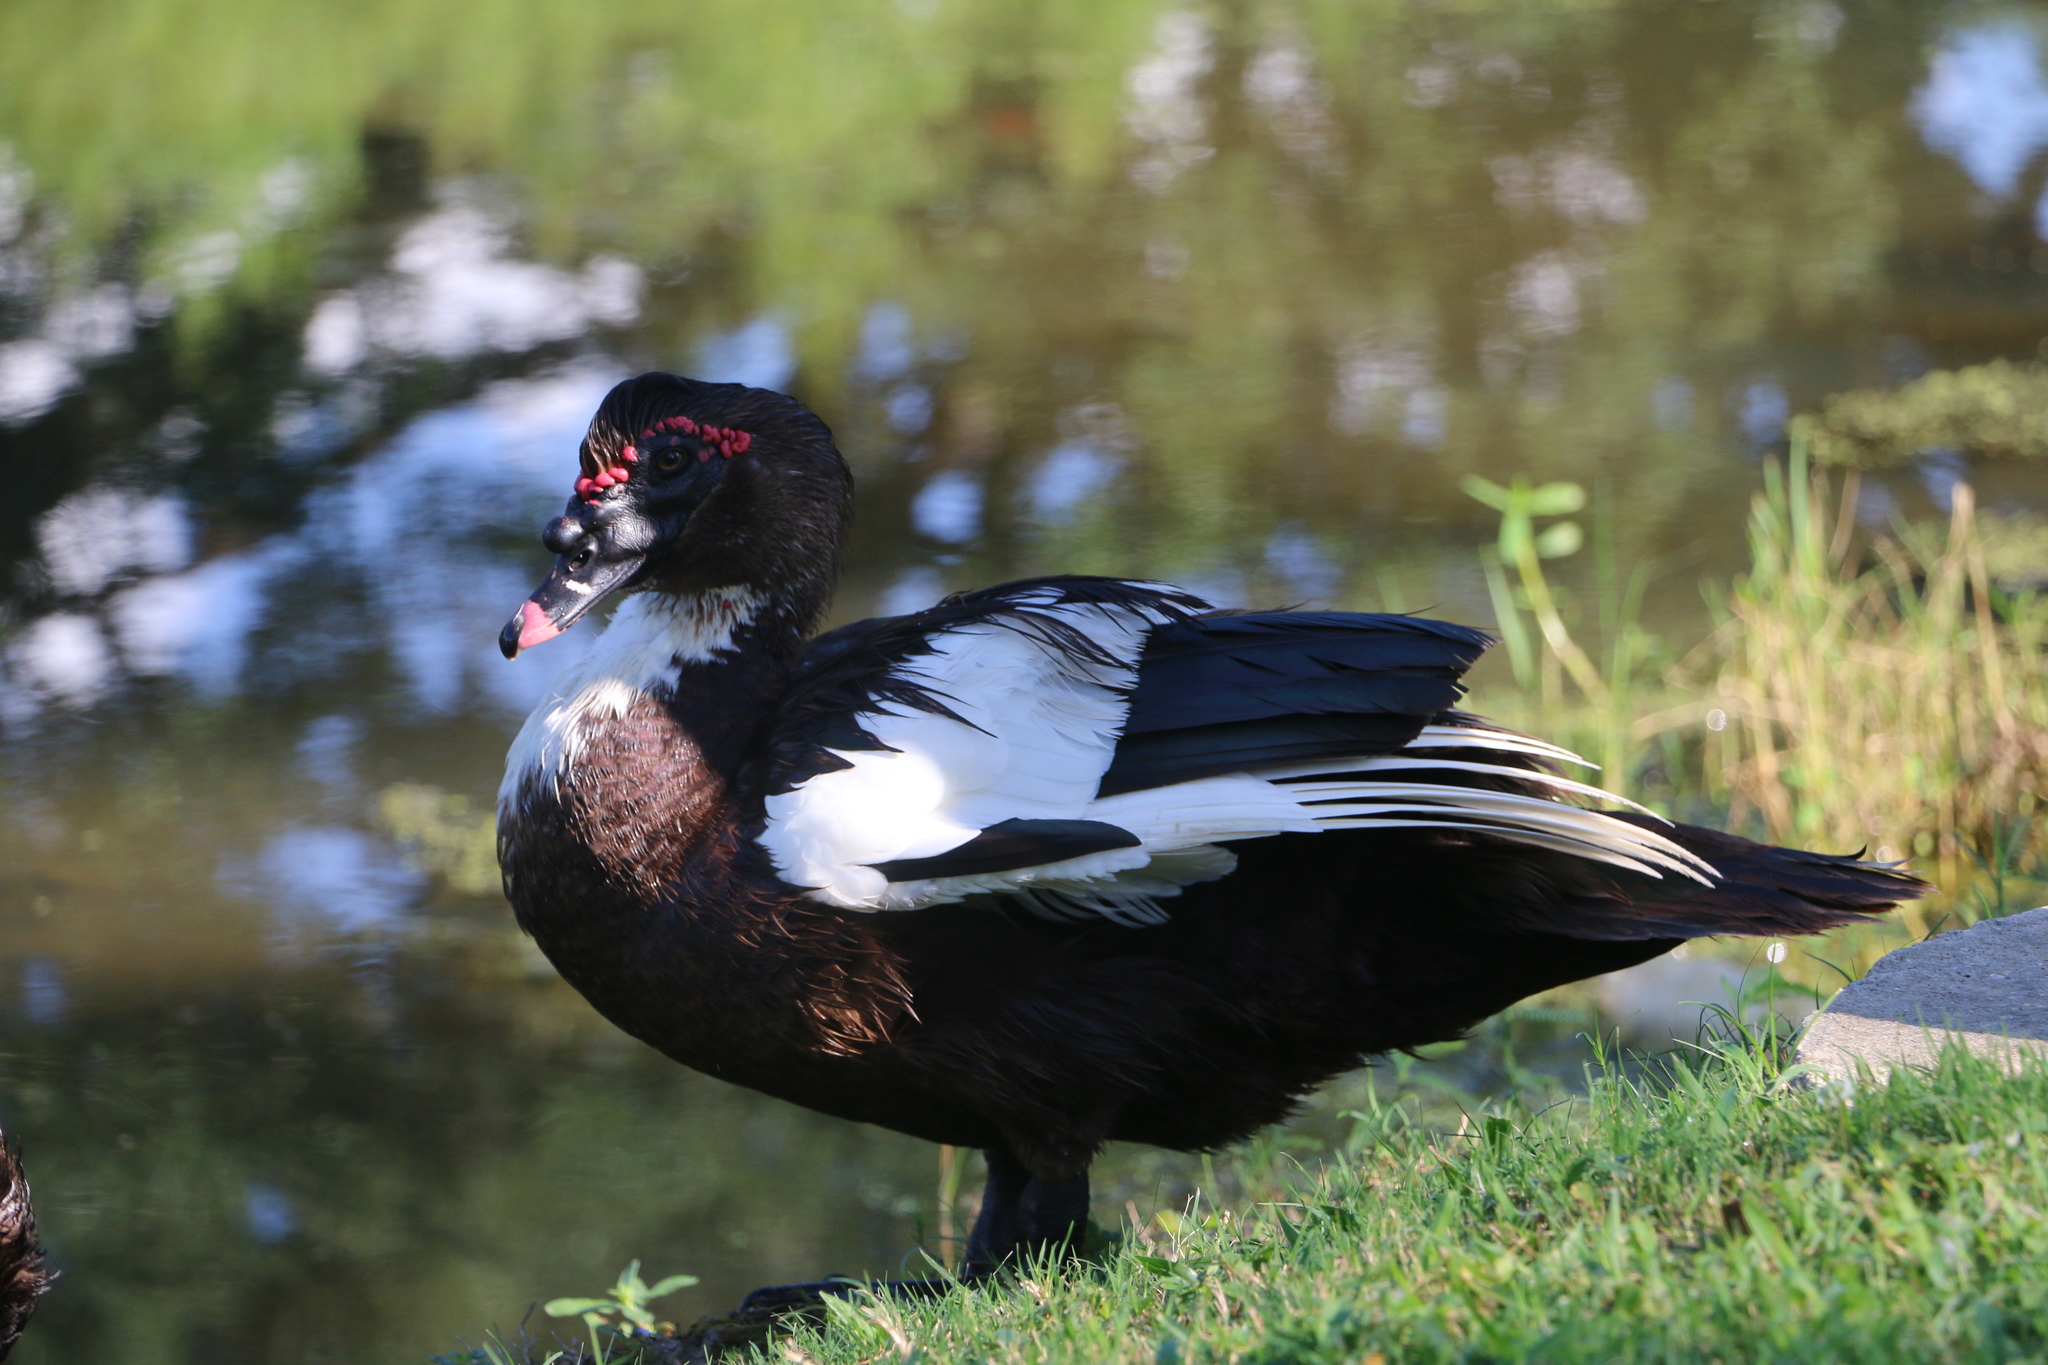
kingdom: Animalia
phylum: Chordata
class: Aves
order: Anseriformes
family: Anatidae
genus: Cairina
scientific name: Cairina moschata
